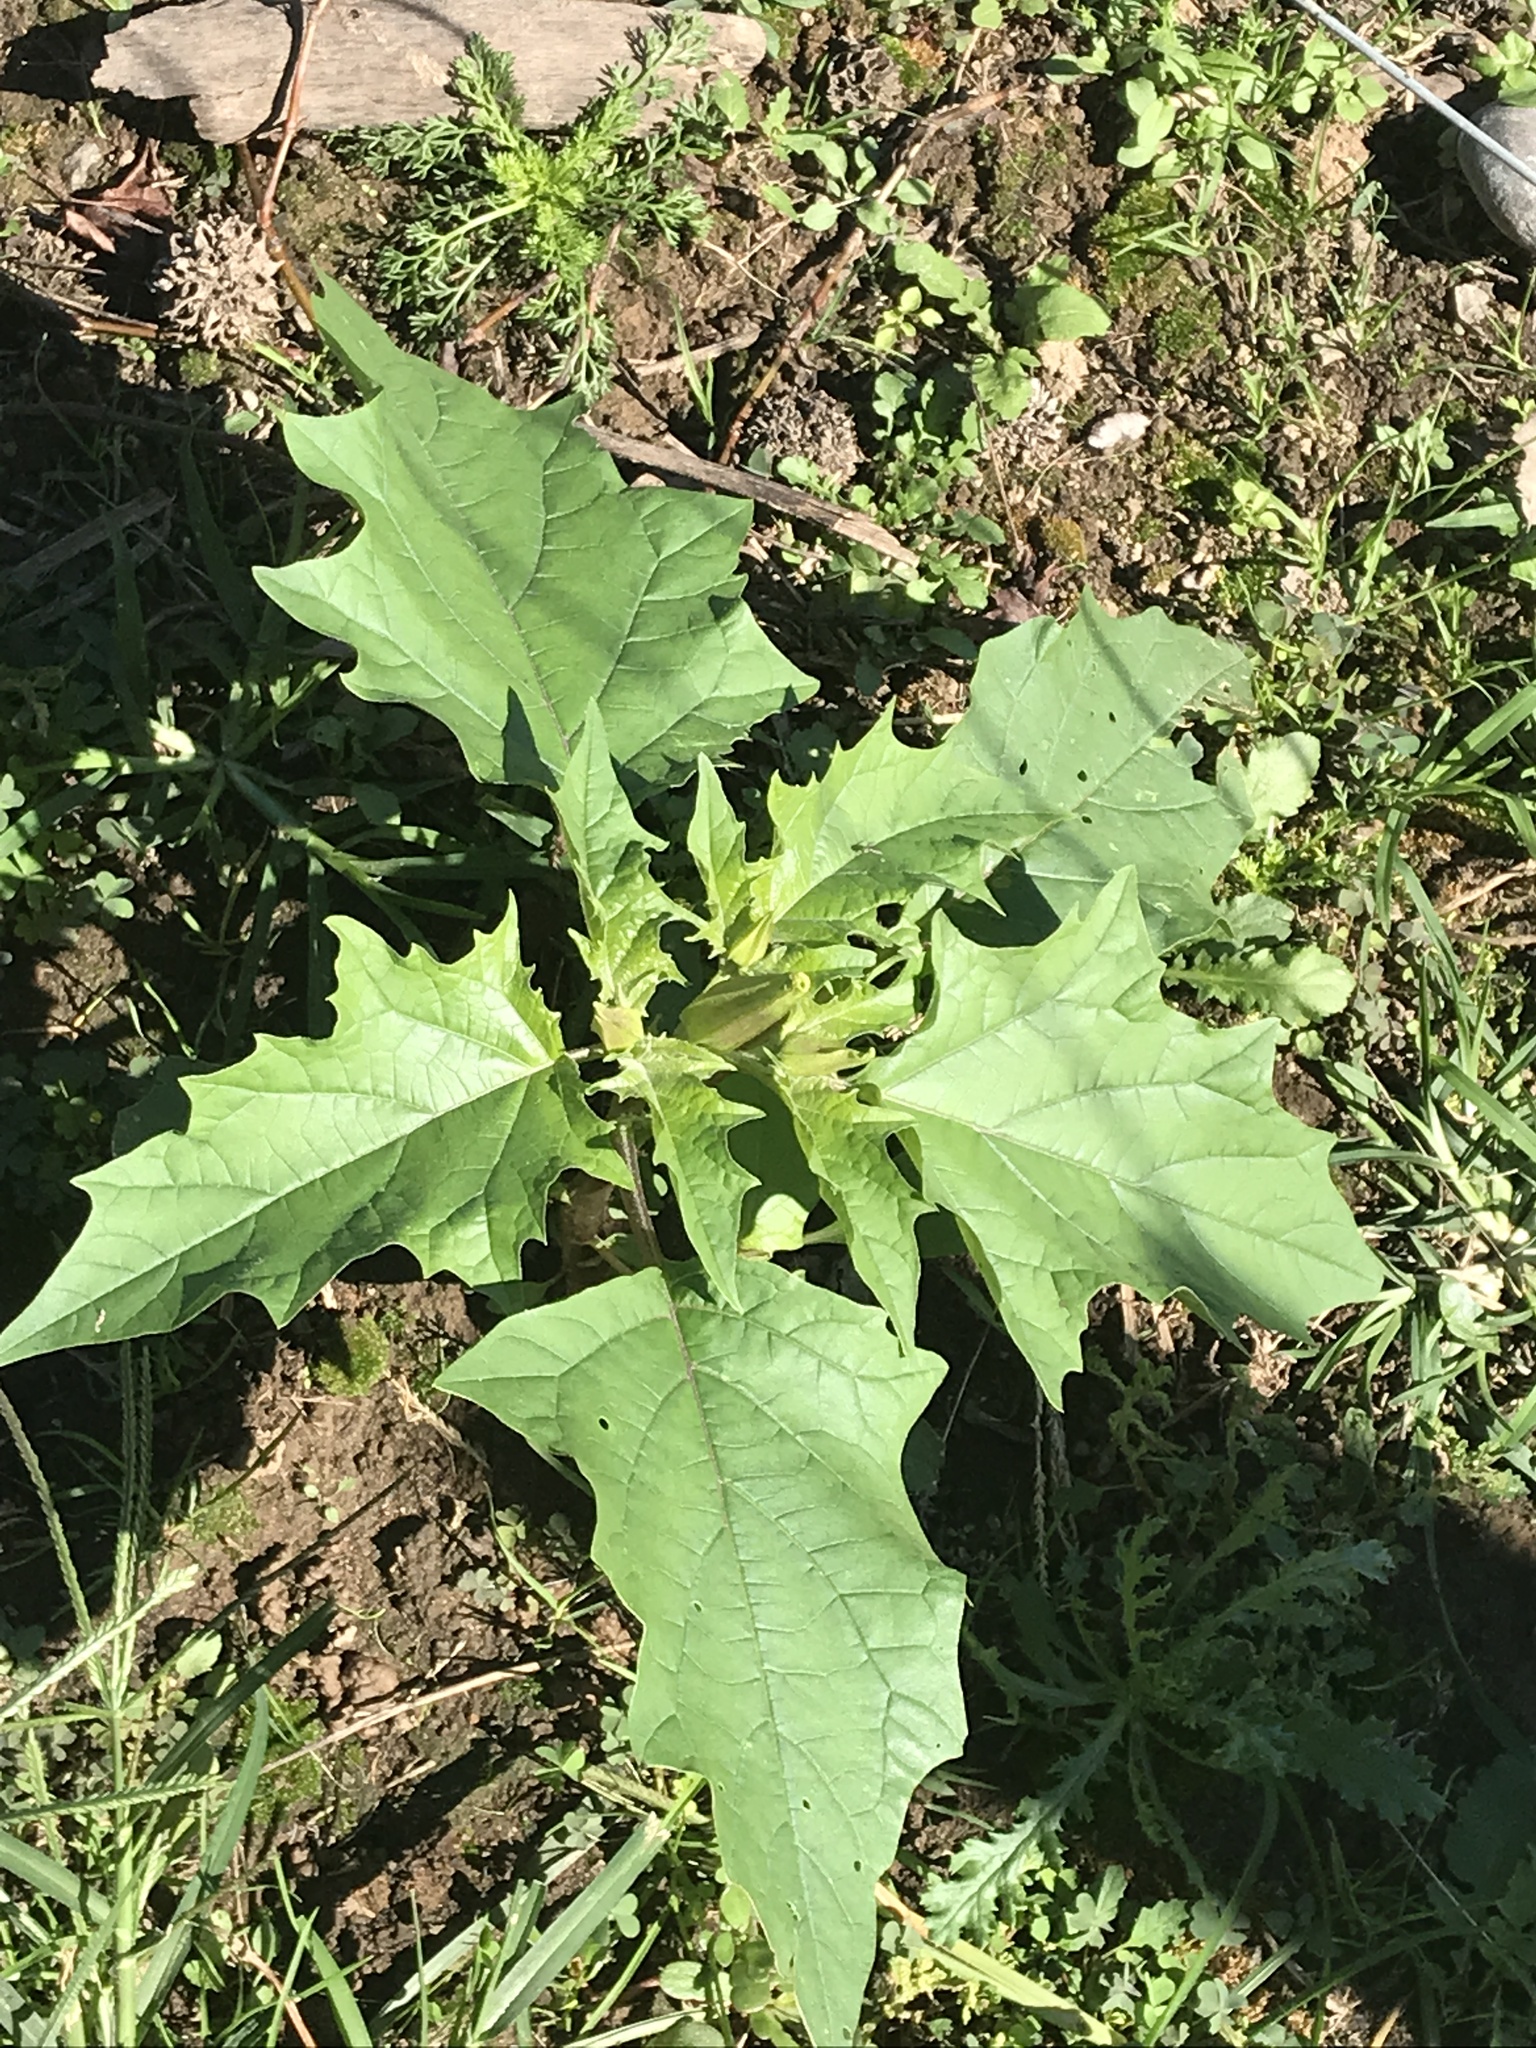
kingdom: Plantae
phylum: Tracheophyta
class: Magnoliopsida
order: Solanales
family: Solanaceae
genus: Datura
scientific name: Datura stramonium
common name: Thorn-apple
